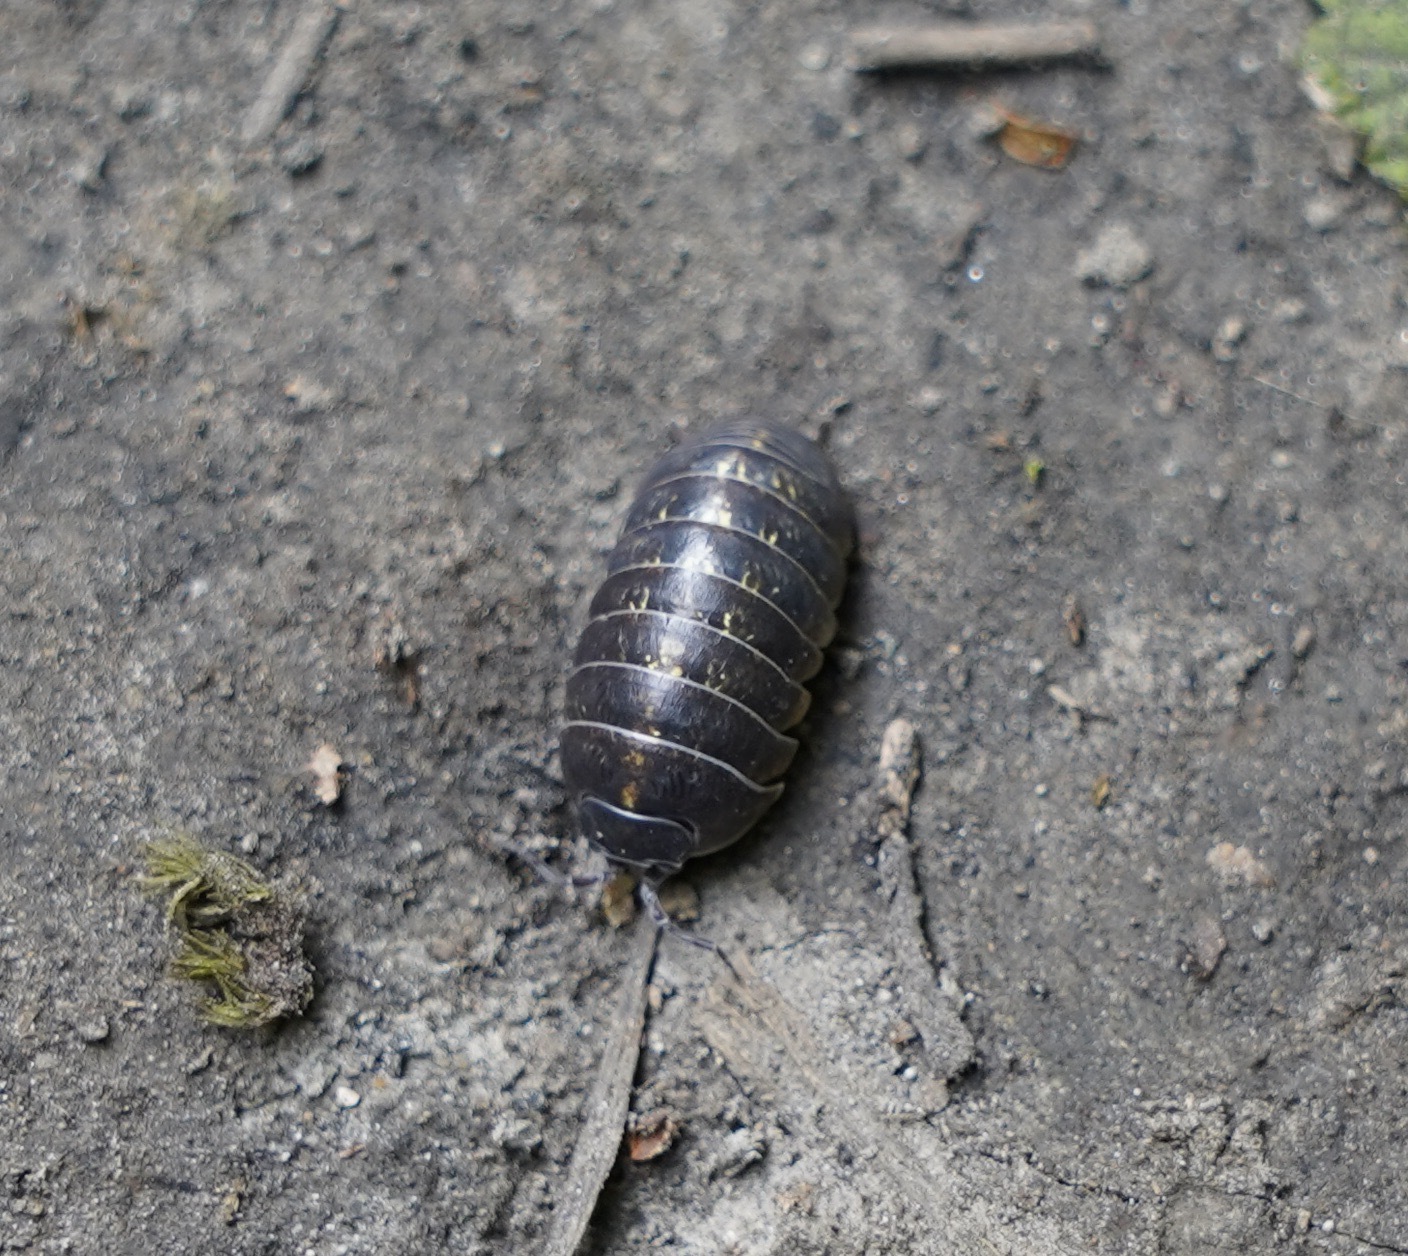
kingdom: Animalia
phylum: Arthropoda
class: Malacostraca
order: Isopoda
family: Armadillidiidae
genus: Armadillidium
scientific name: Armadillidium vulgare
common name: Common pill woodlouse
